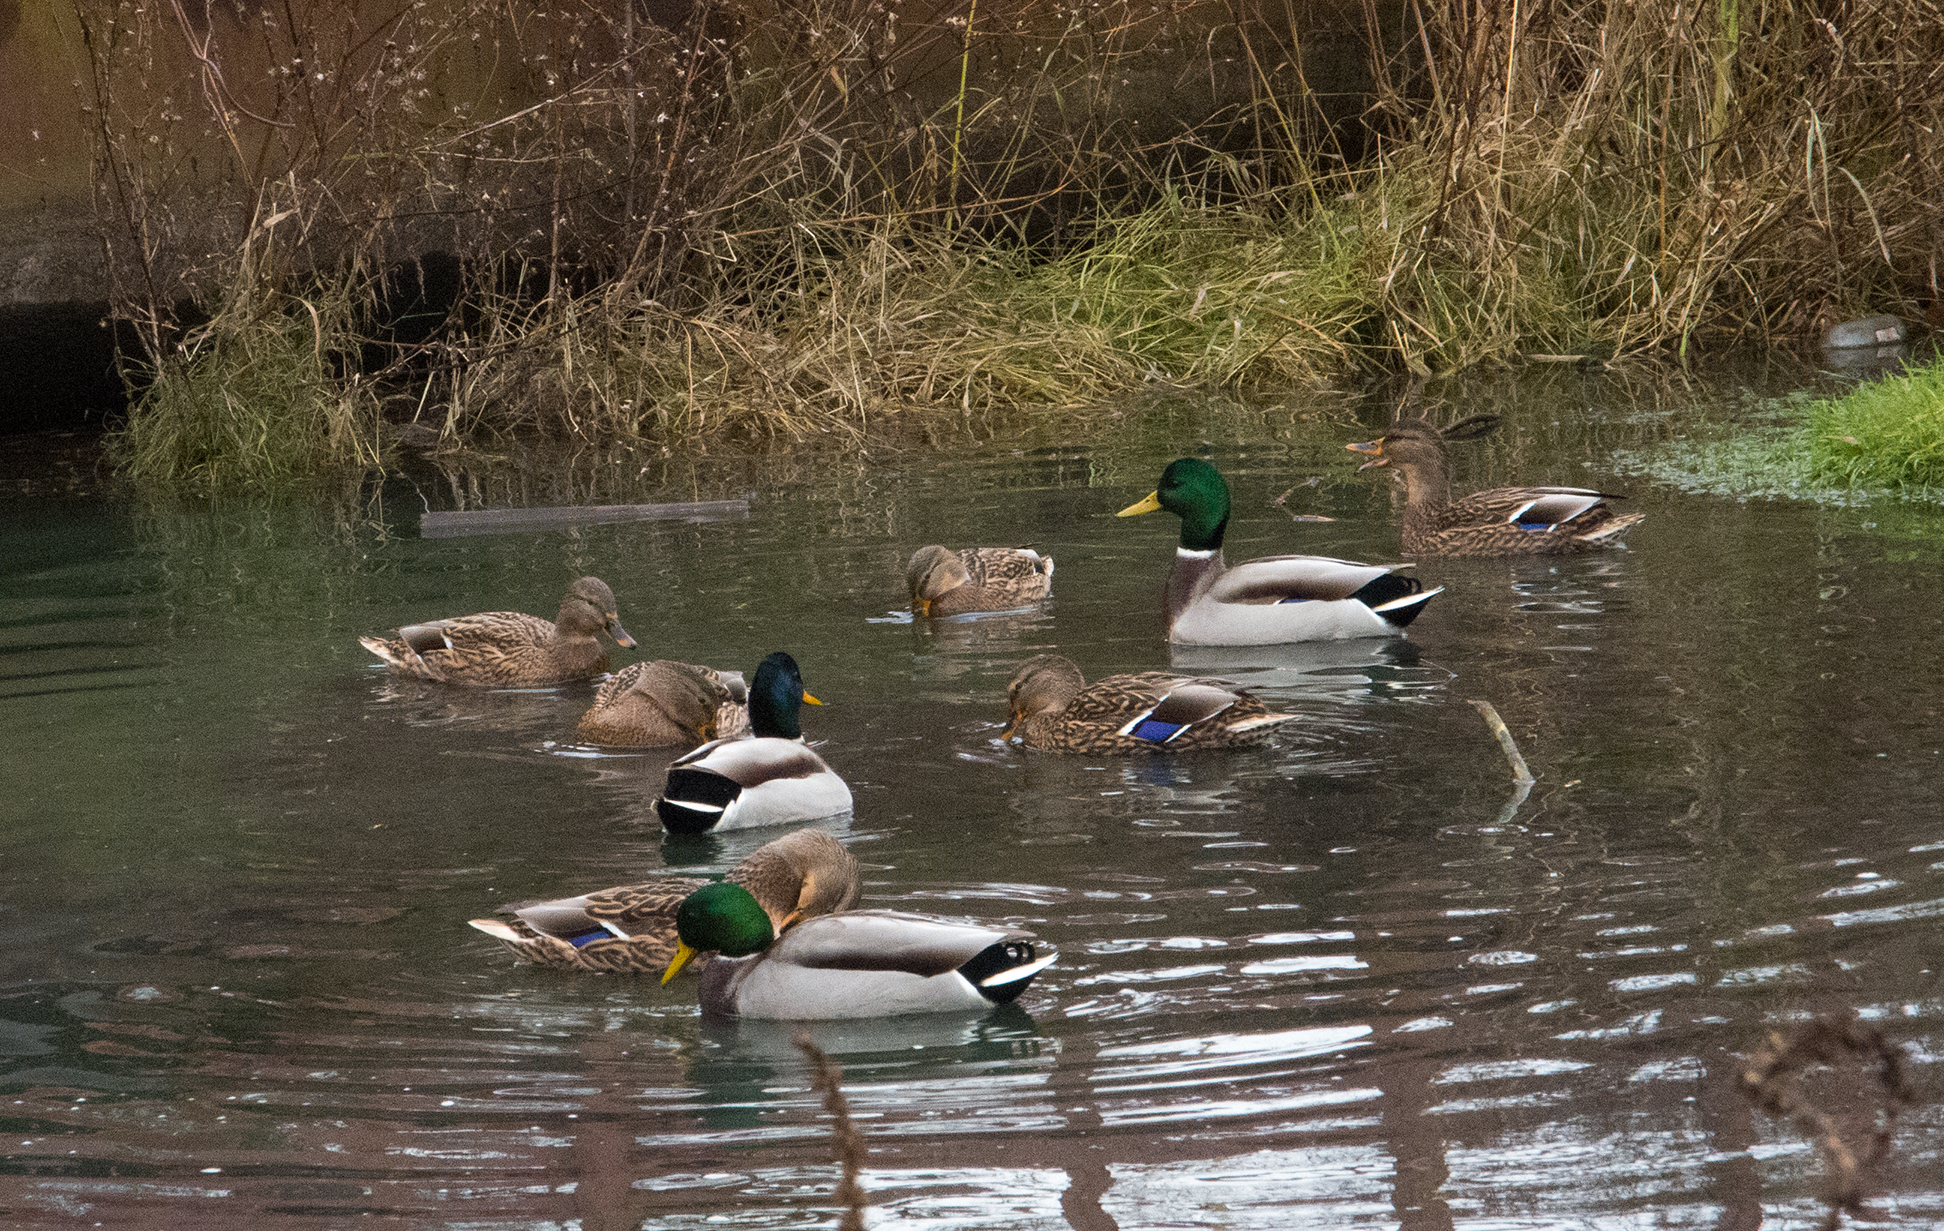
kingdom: Animalia
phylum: Chordata
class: Aves
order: Anseriformes
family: Anatidae
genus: Anas
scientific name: Anas platyrhynchos
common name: Mallard
